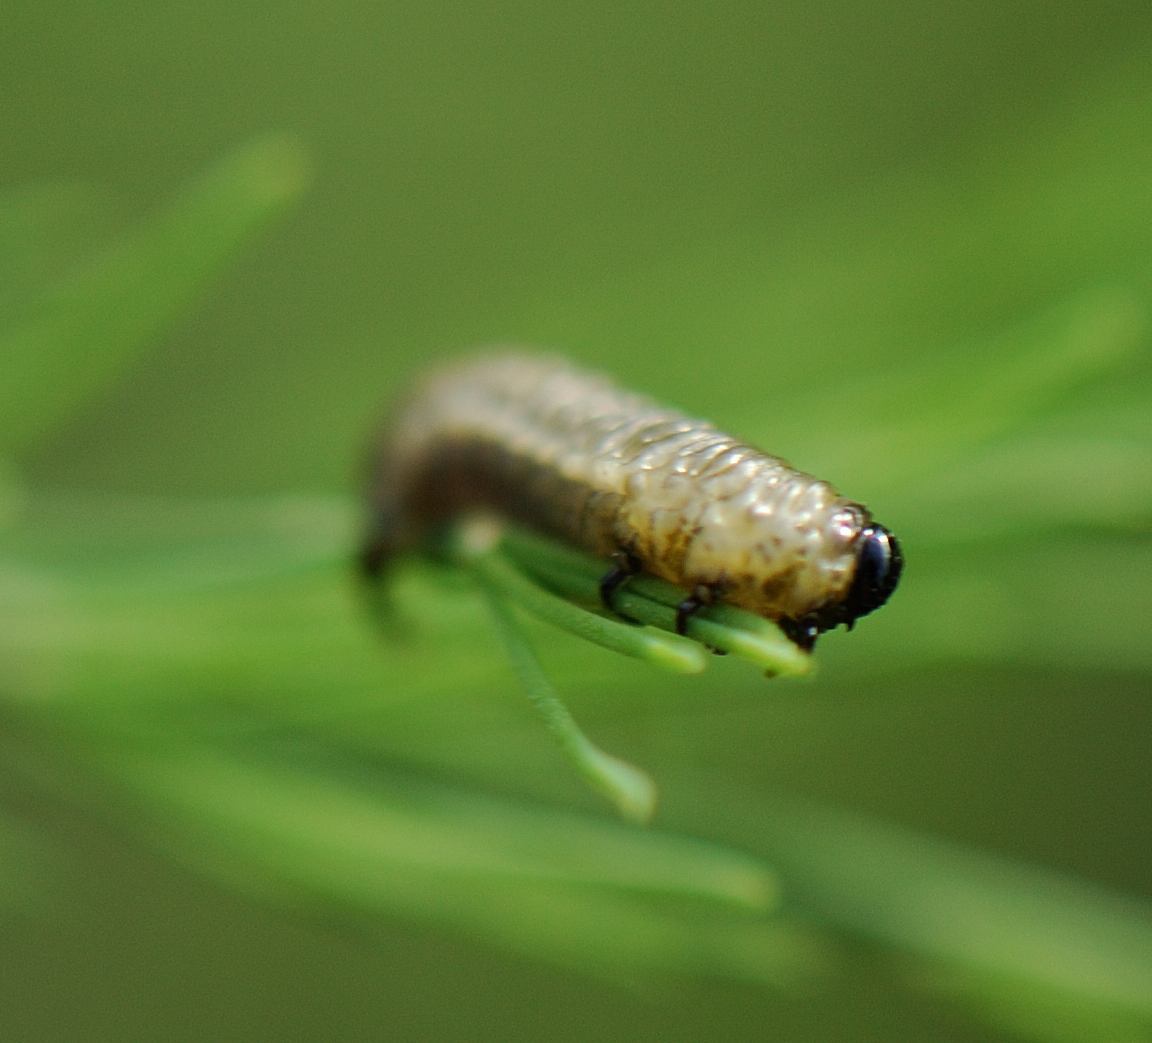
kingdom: Animalia
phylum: Arthropoda
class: Insecta
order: Coleoptera
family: Chrysomelidae
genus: Crioceris
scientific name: Crioceris asparagi
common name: Asparagus beetle
